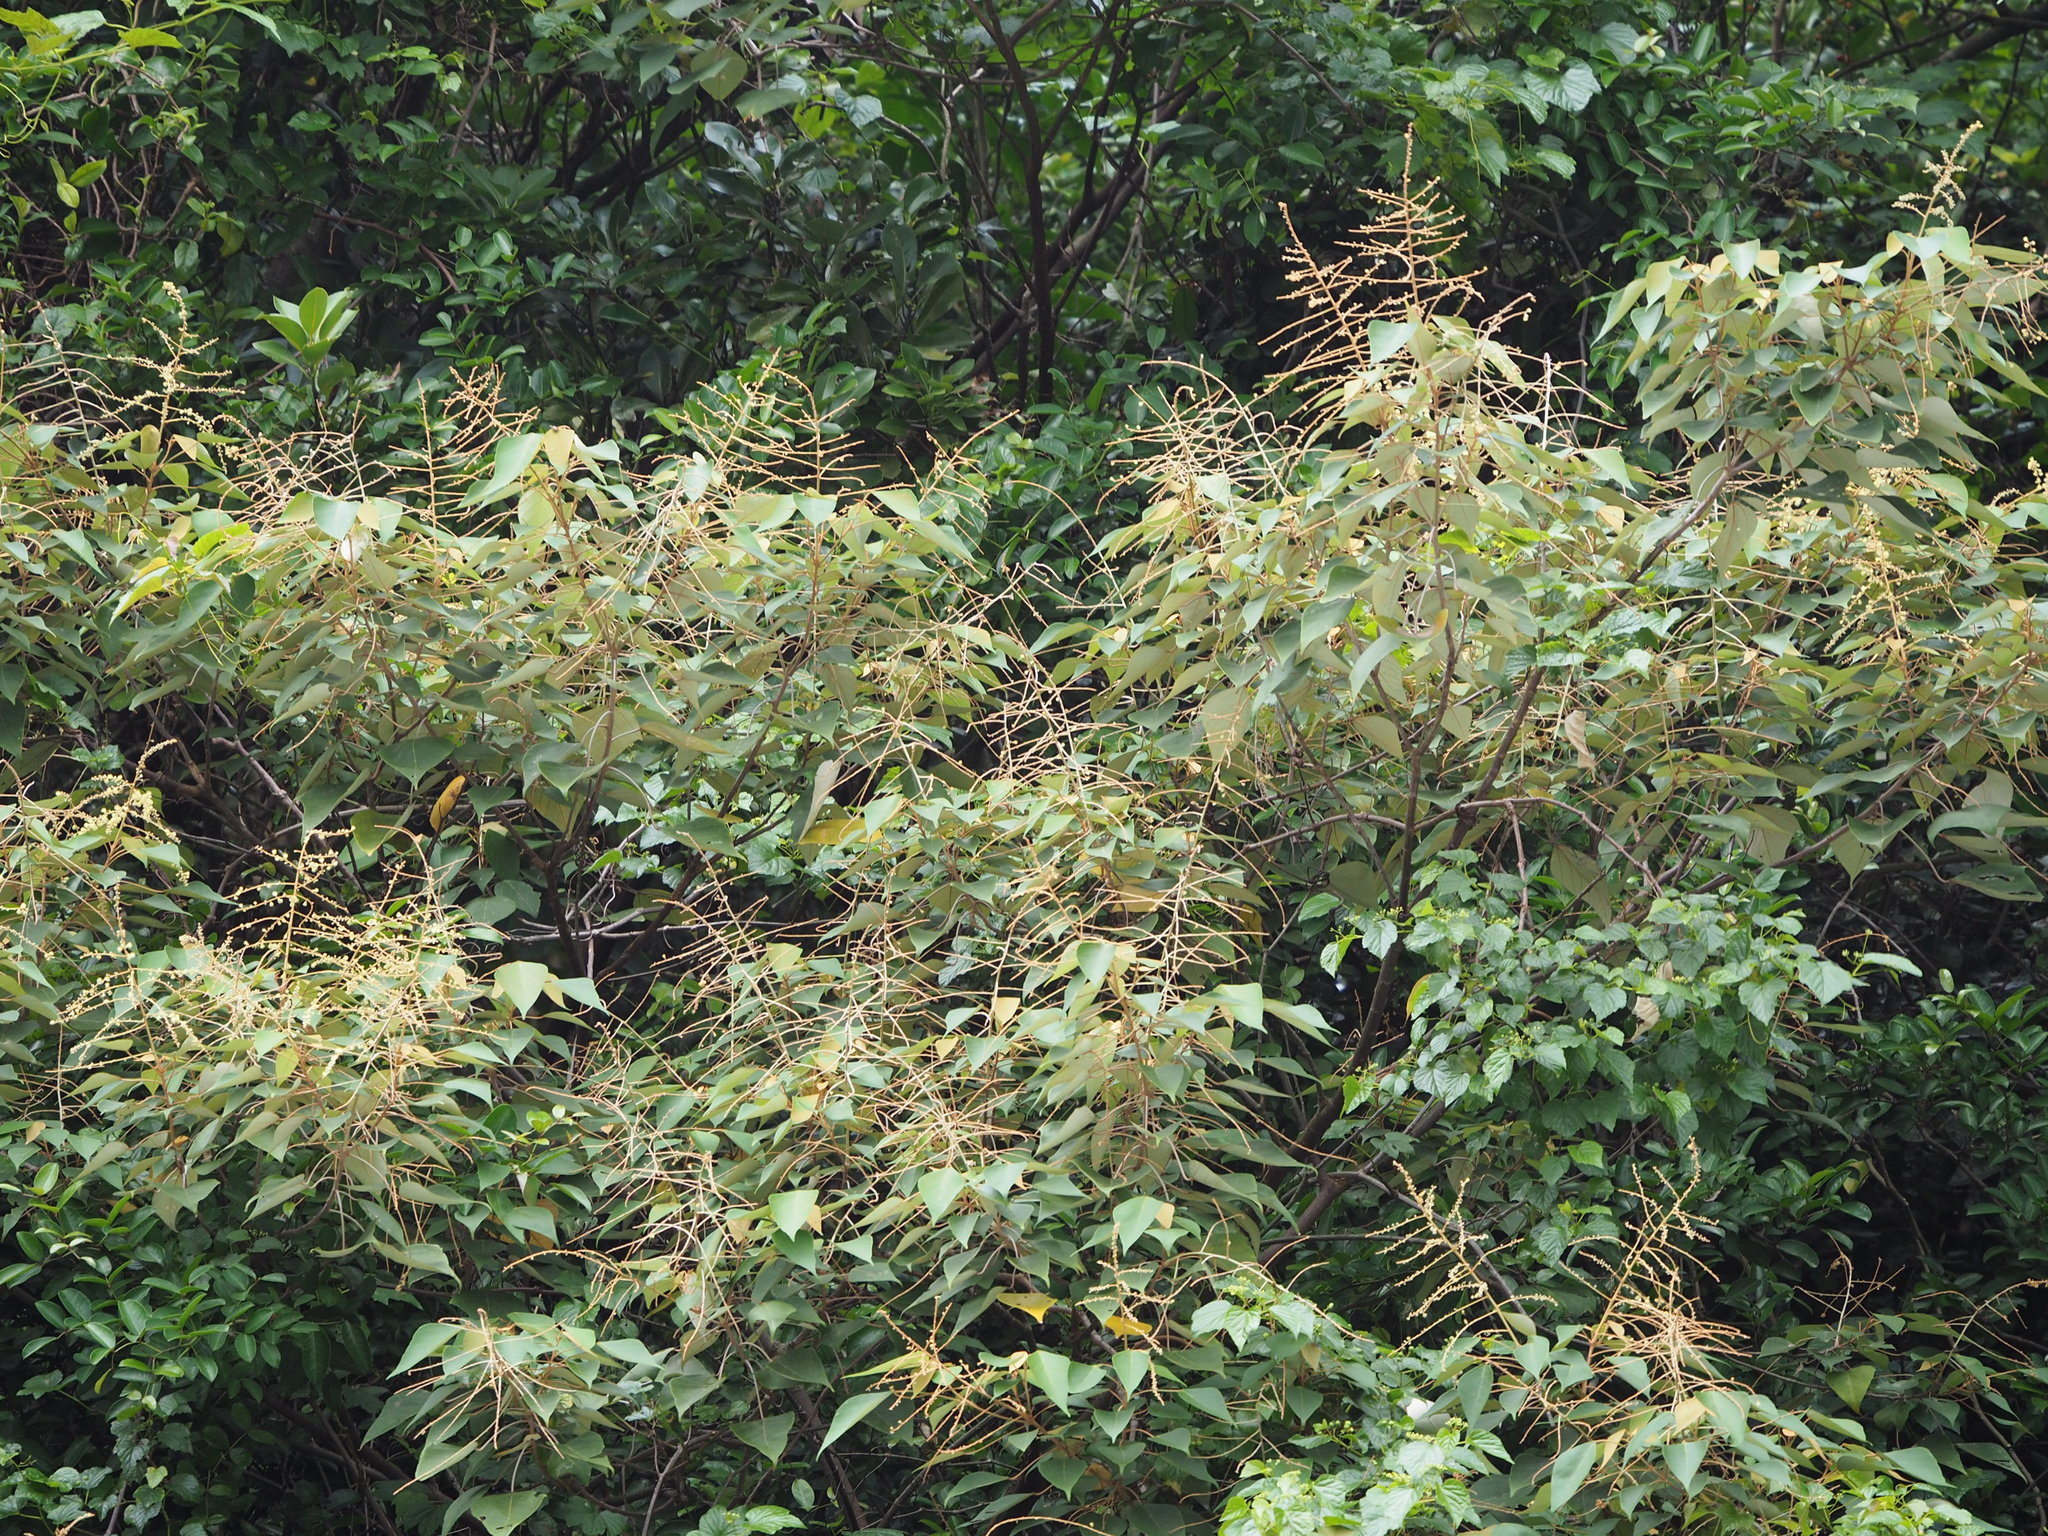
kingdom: Plantae
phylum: Tracheophyta
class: Magnoliopsida
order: Malpighiales
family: Euphorbiaceae
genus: Mallotus
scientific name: Mallotus paniculatus
